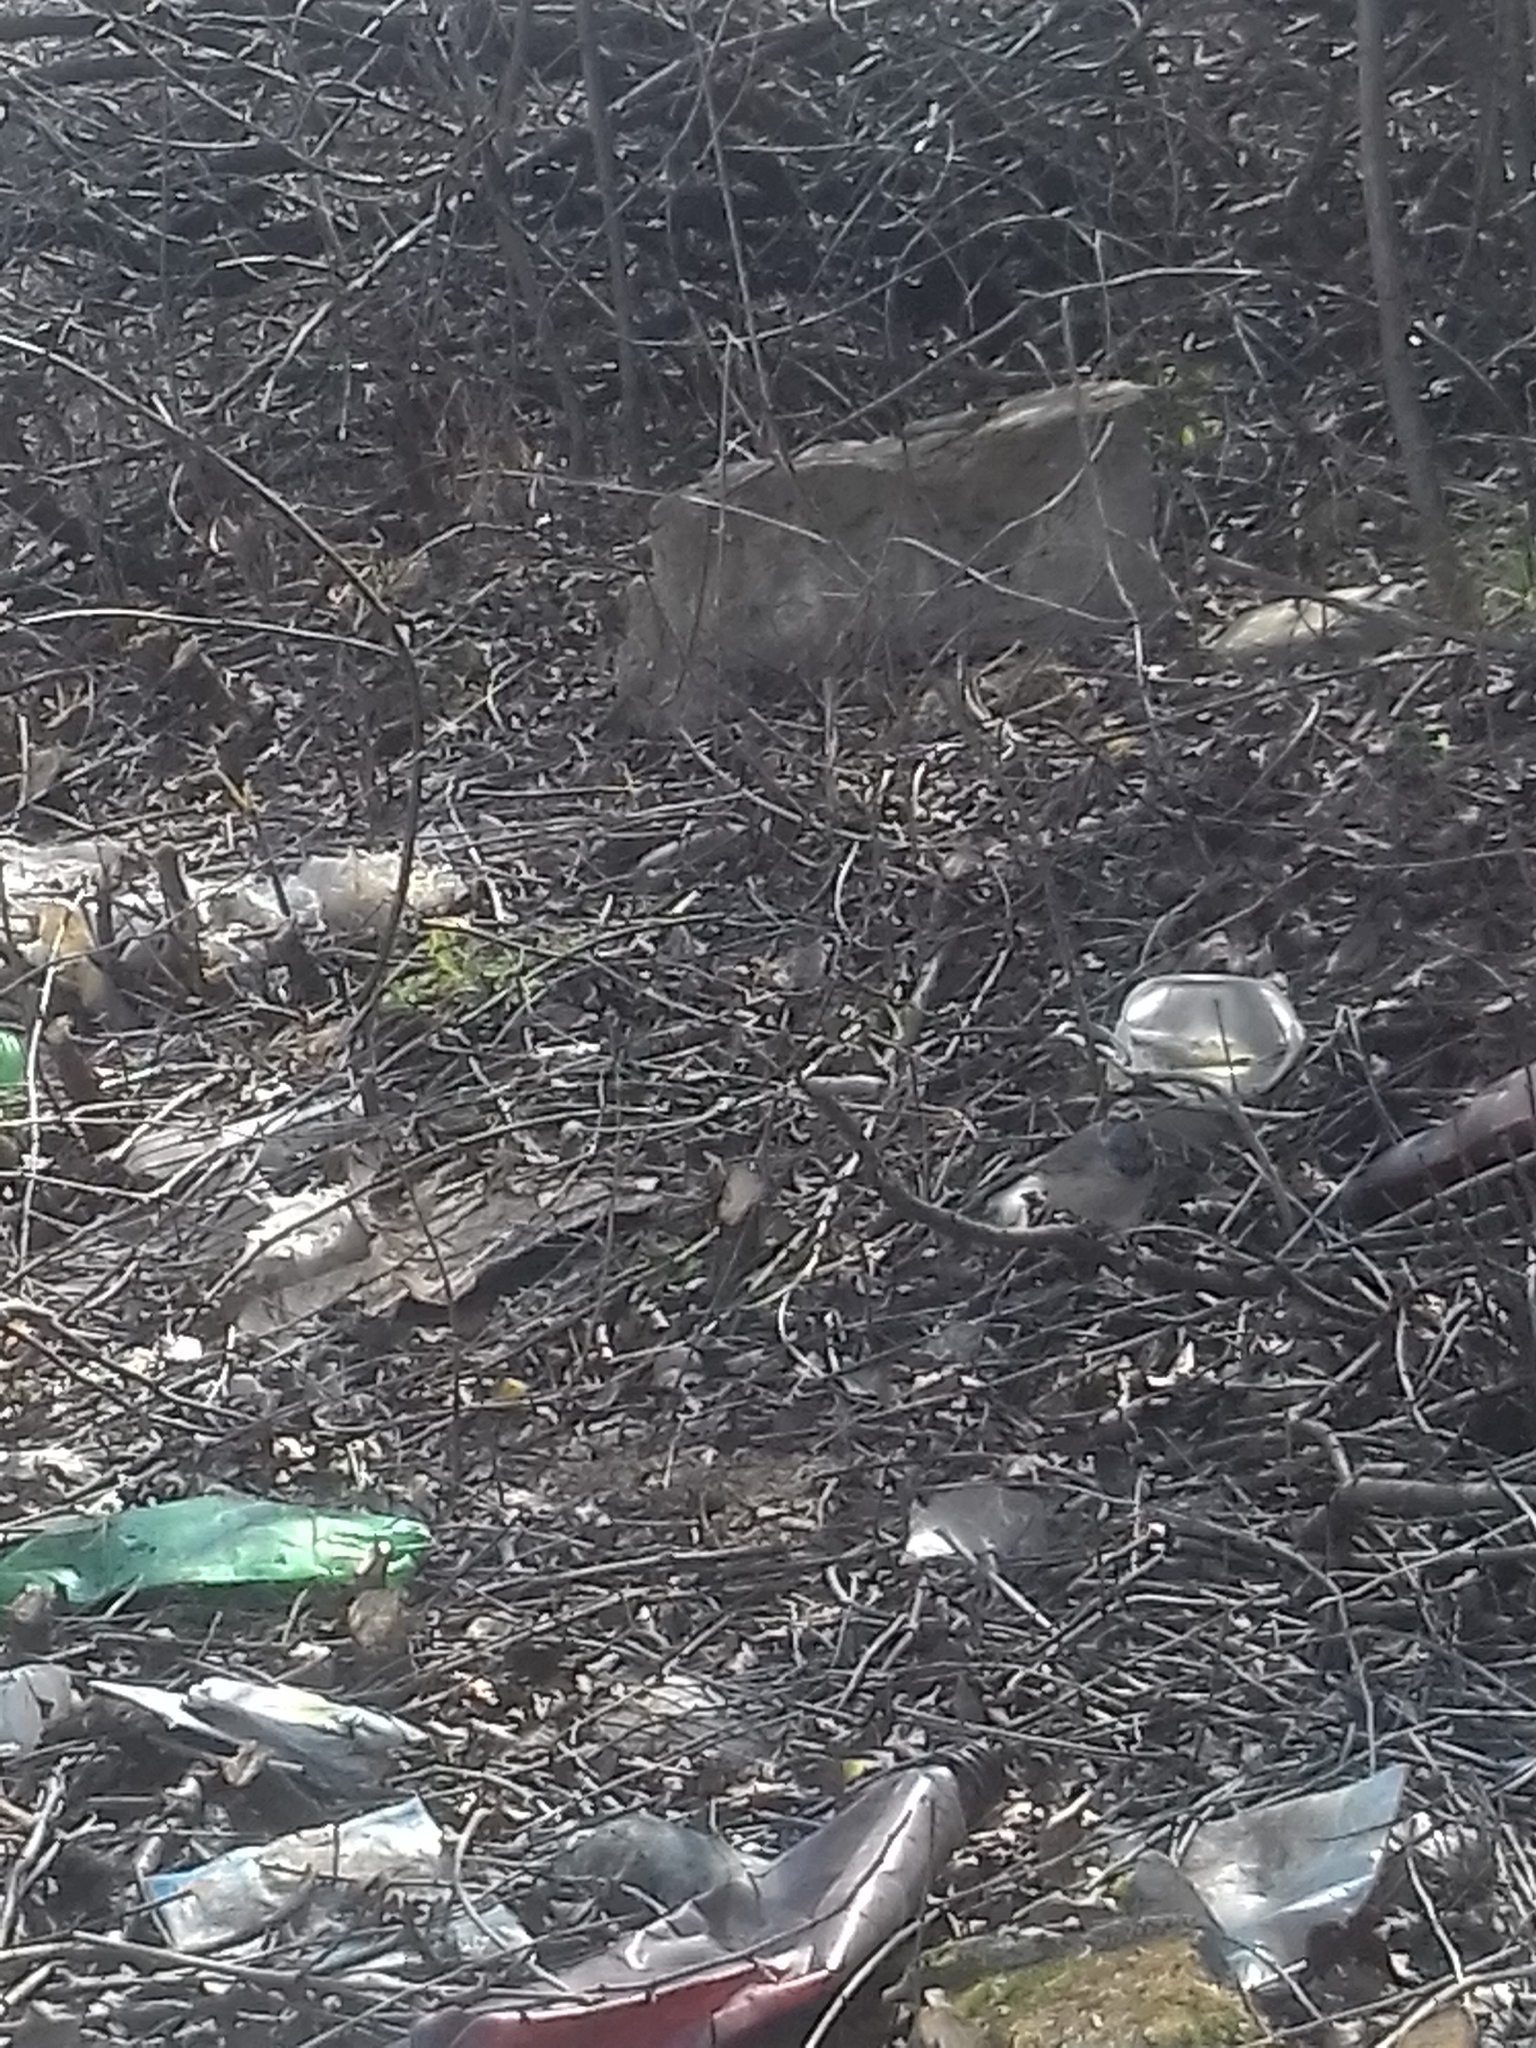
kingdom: Animalia
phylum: Chordata
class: Aves
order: Passeriformes
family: Muscicapidae
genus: Luscinia
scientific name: Luscinia svecica
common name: Bluethroat
